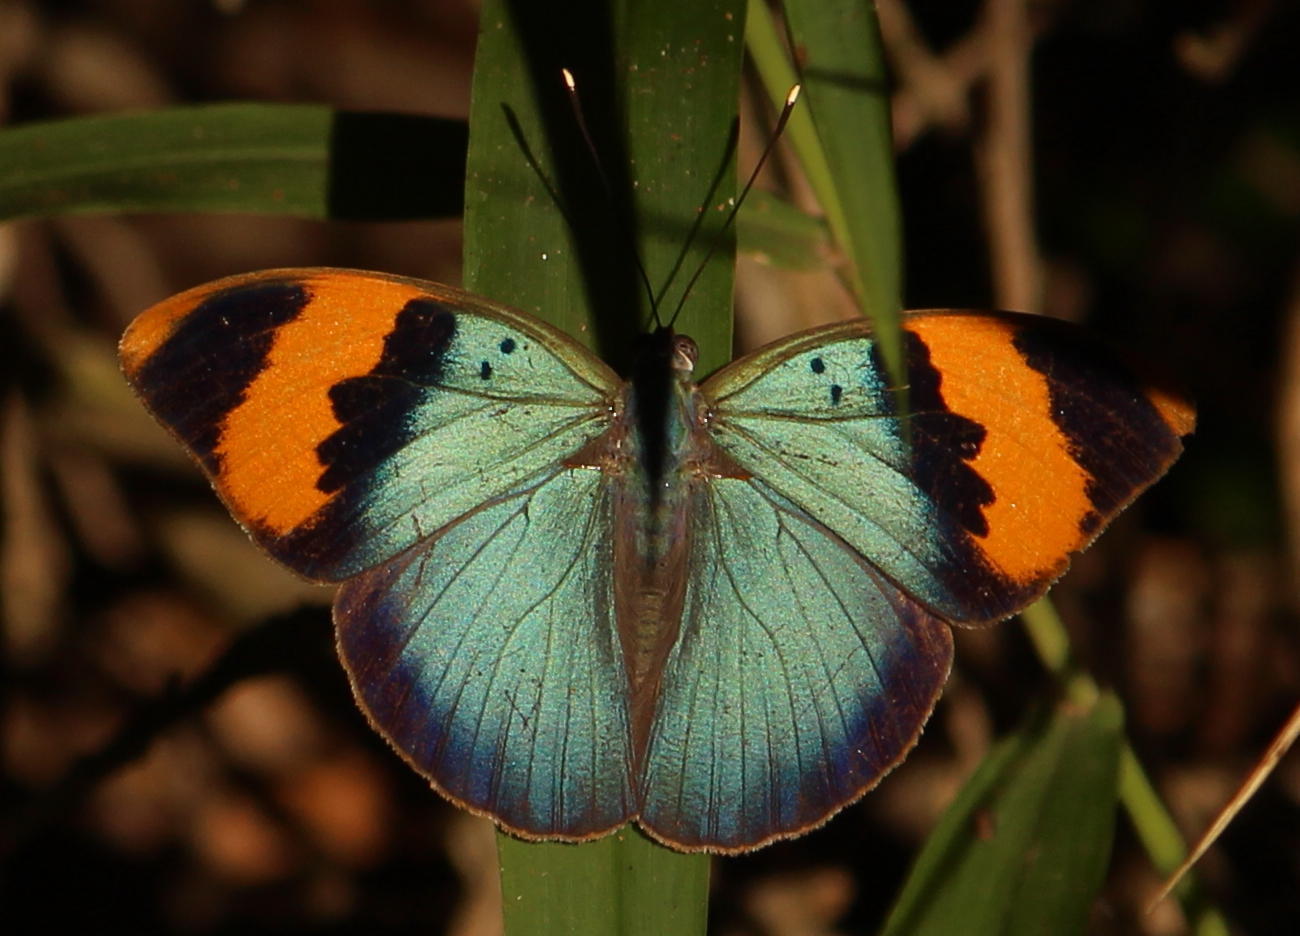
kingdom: Animalia
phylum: Arthropoda
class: Insecta
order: Lepidoptera
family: Nymphalidae
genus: Euphaedra
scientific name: Euphaedra neophron
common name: Gold-banded forester
